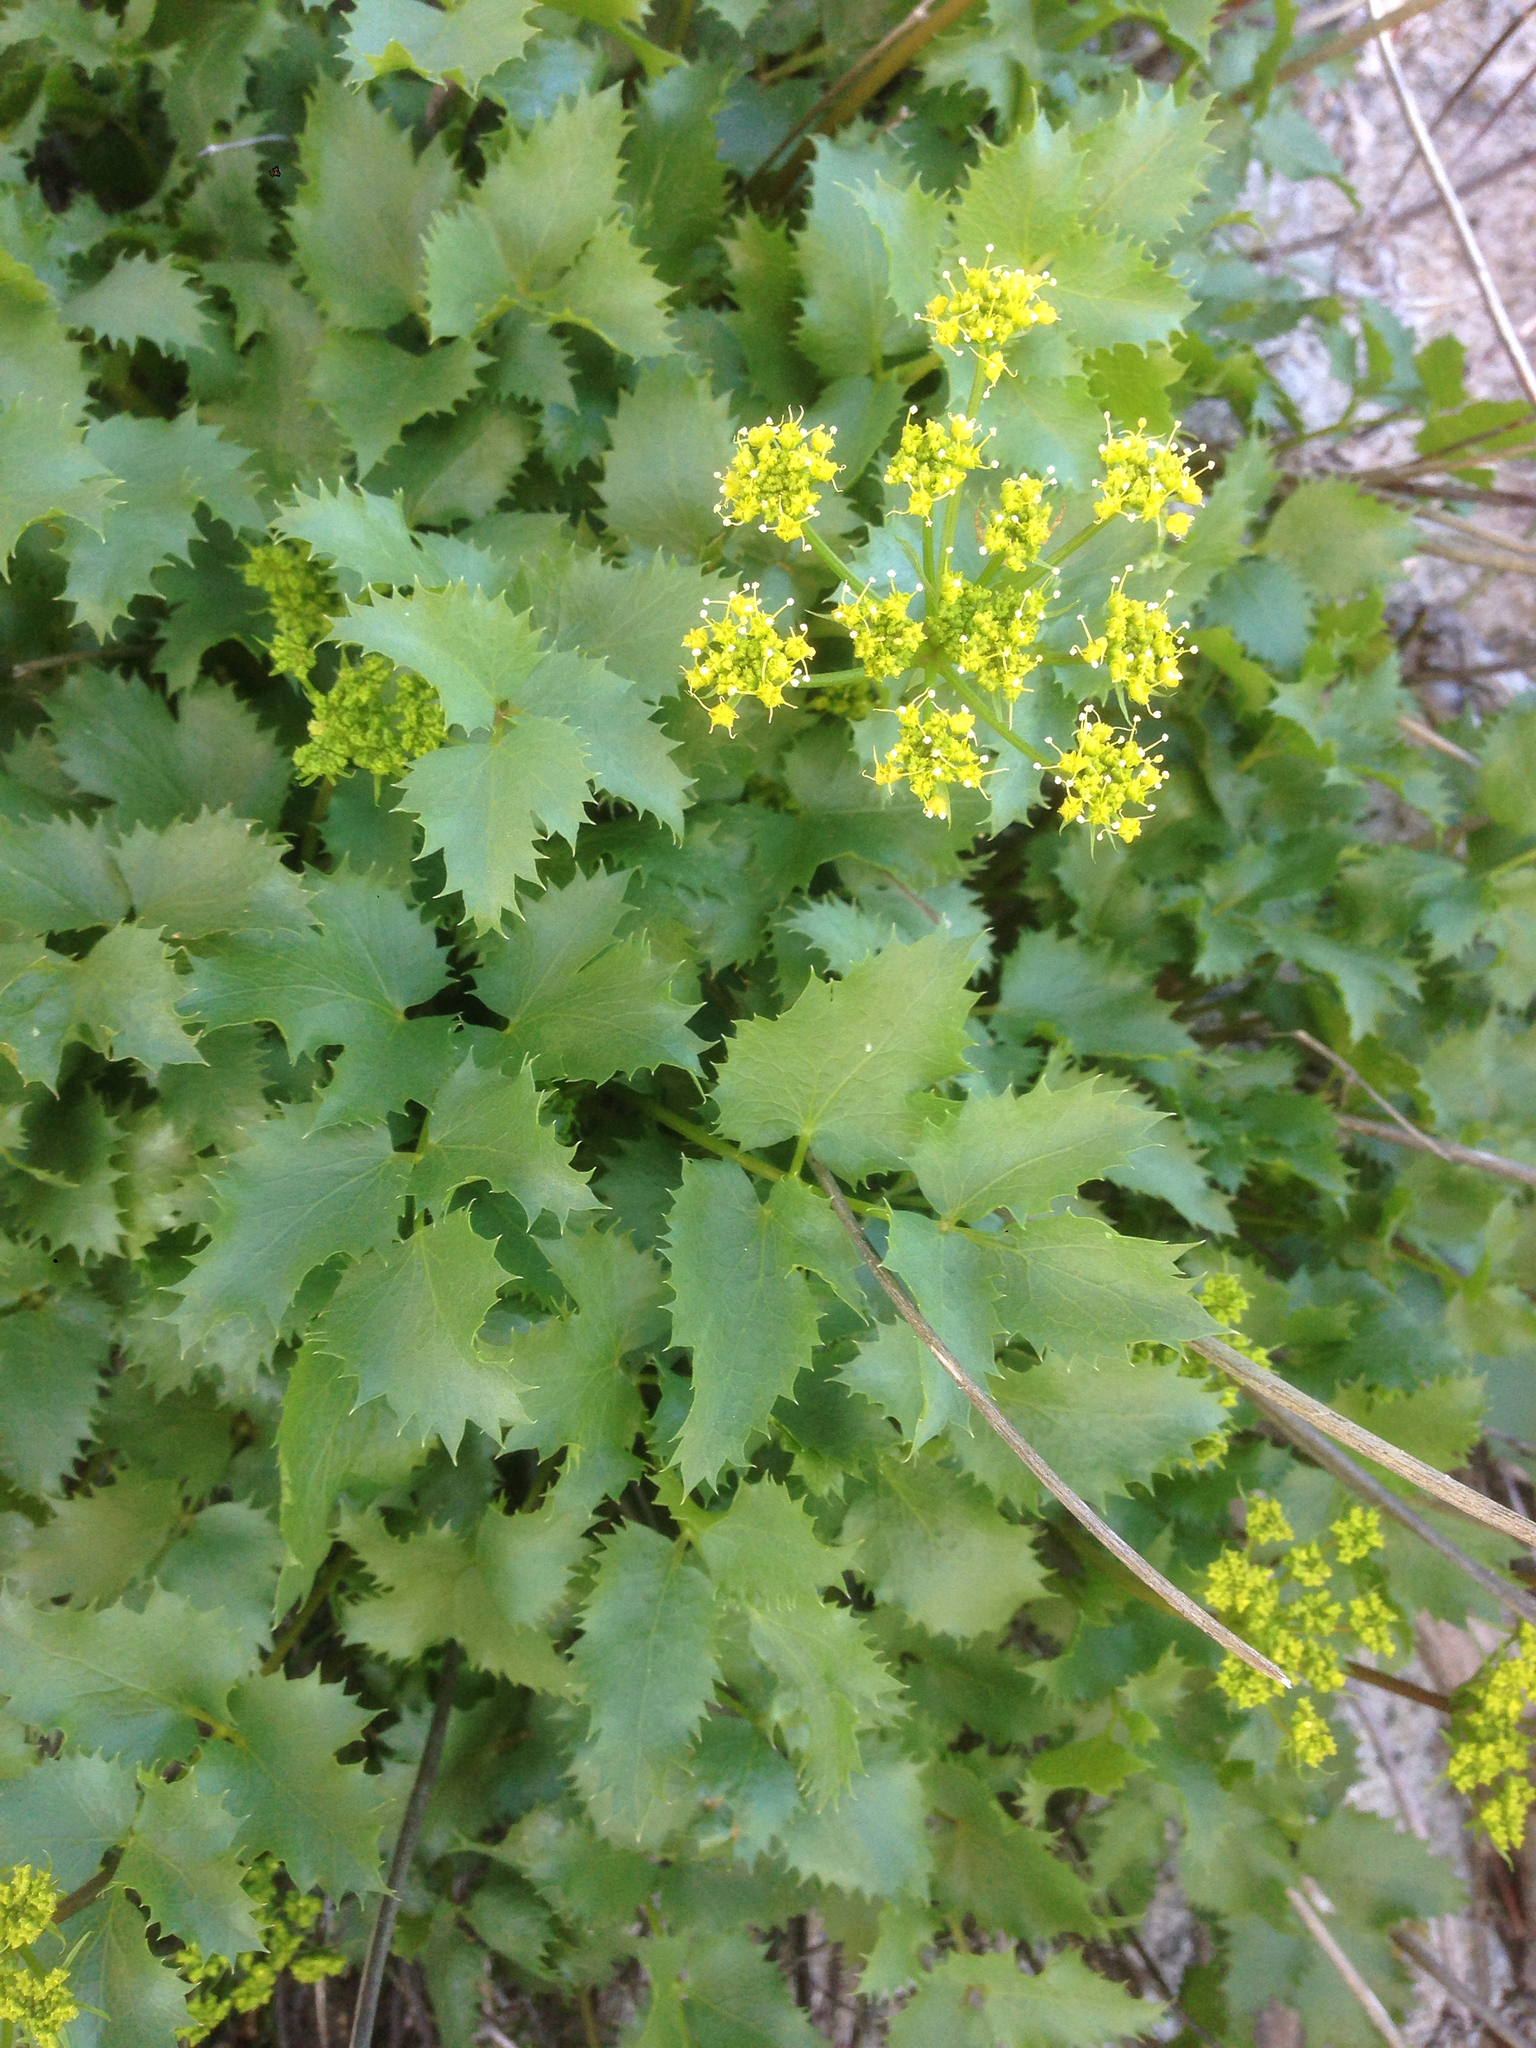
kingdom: Plantae
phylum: Tracheophyta
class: Magnoliopsida
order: Apiales
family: Apiaceae
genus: Tauschia
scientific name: Tauschia arguta
